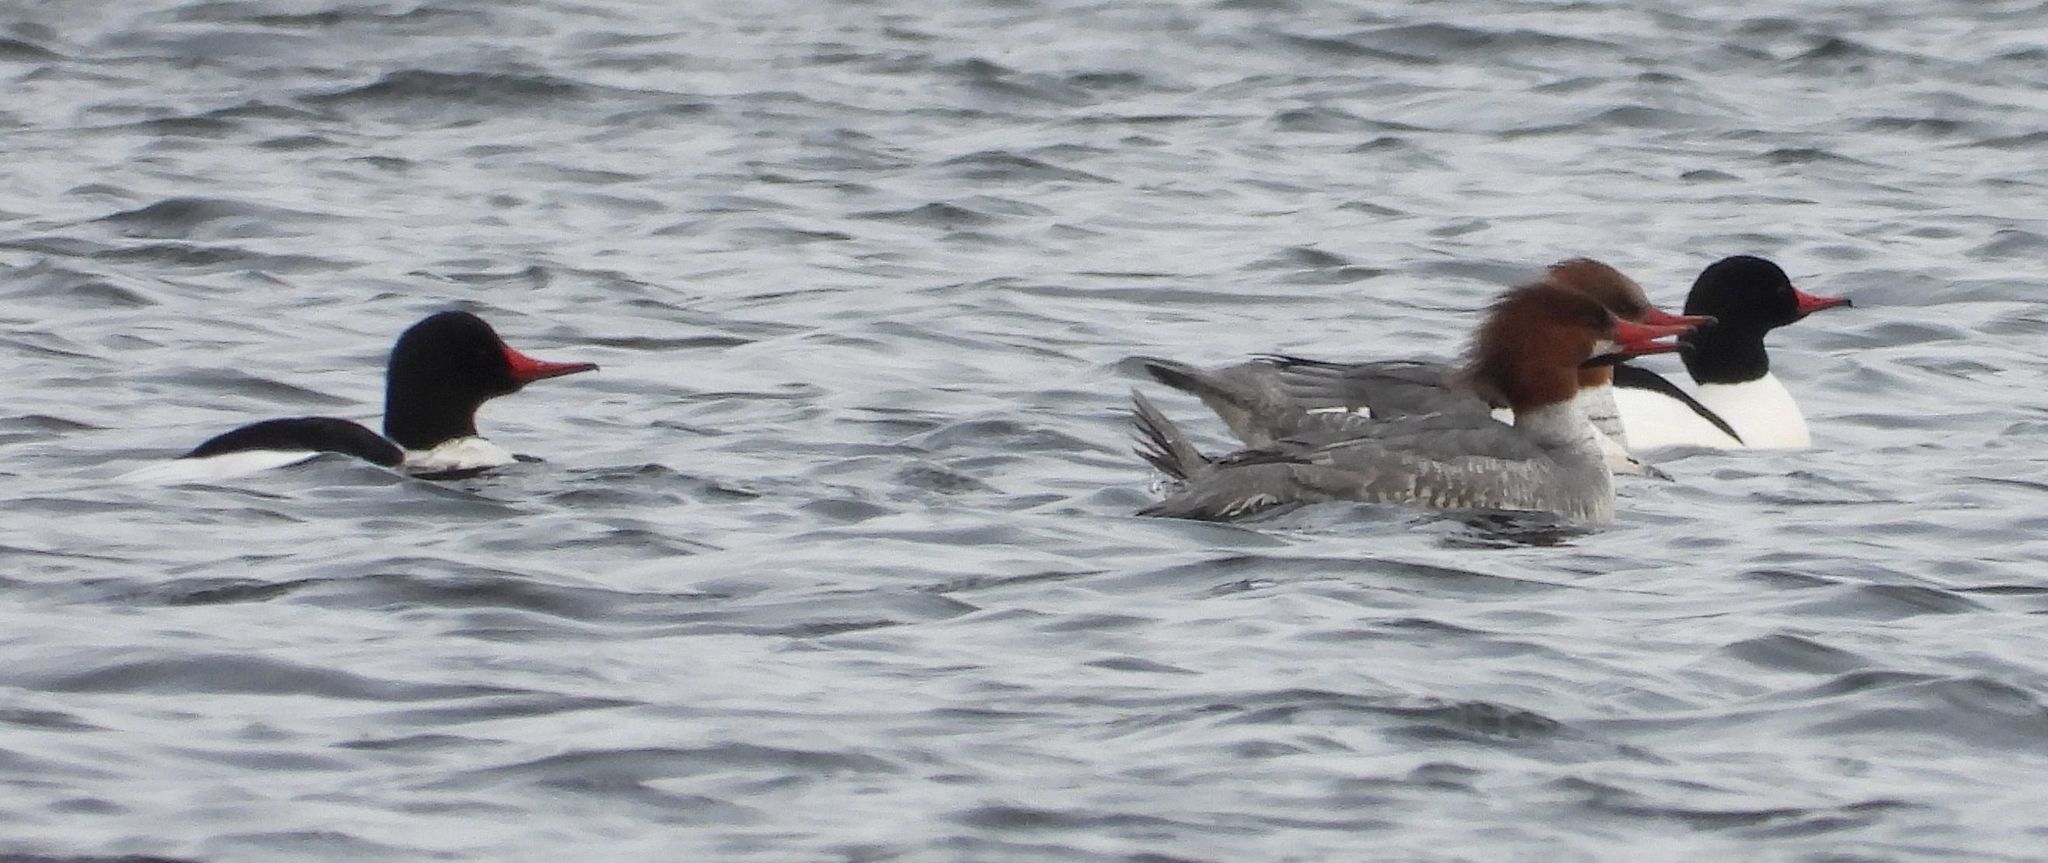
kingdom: Animalia
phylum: Chordata
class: Aves
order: Anseriformes
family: Anatidae
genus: Mergus
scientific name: Mergus merganser
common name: Common merganser
